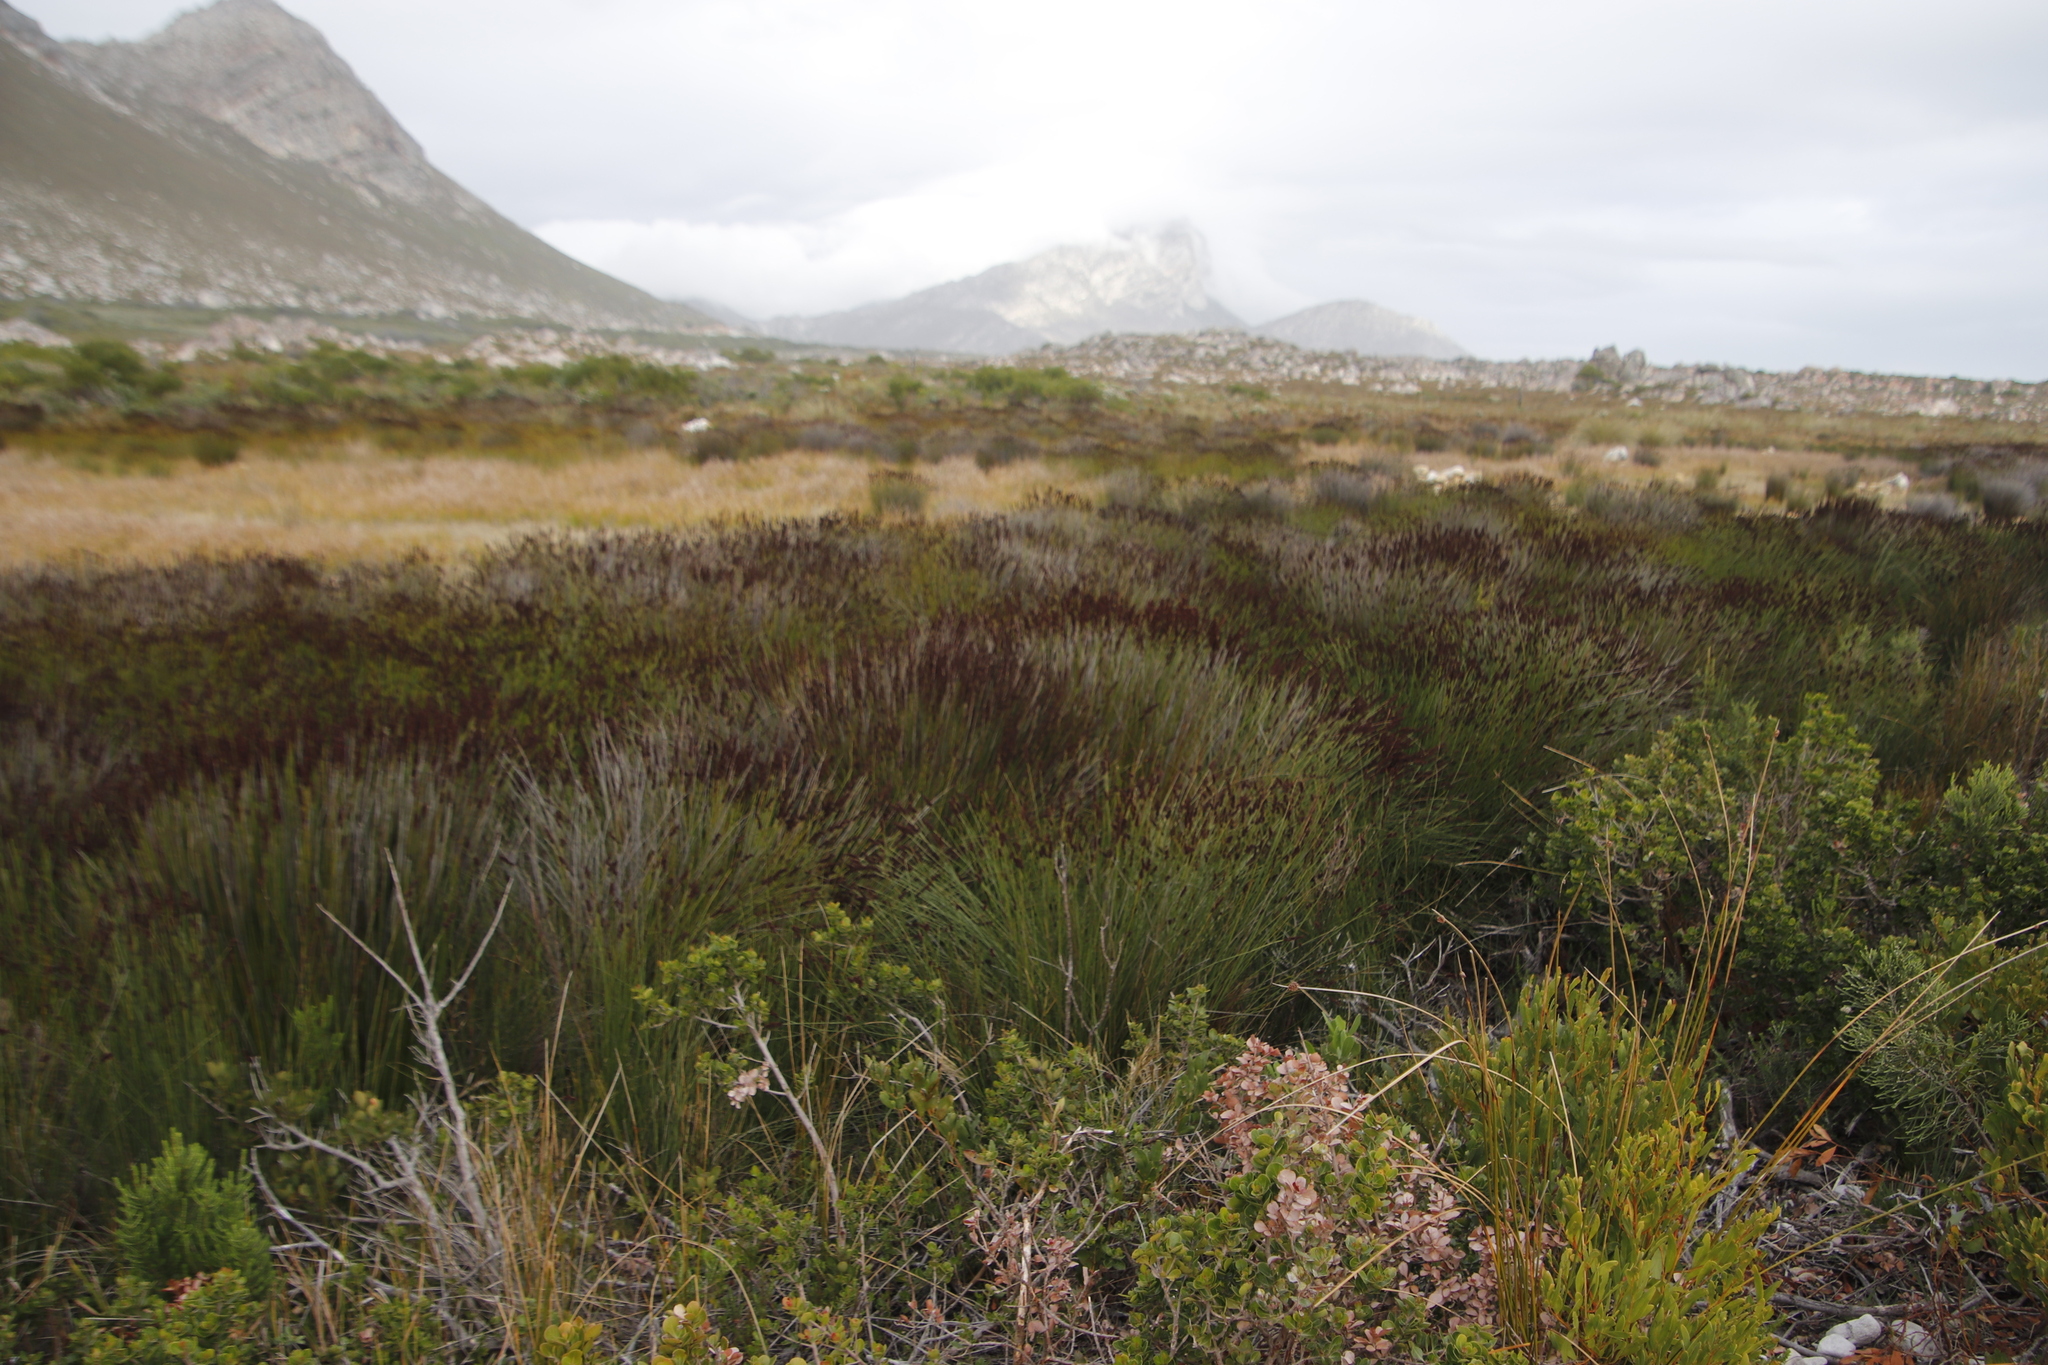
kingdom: Plantae
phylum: Tracheophyta
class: Liliopsida
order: Poales
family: Restionaceae
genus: Elegia
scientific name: Elegia tectorum
